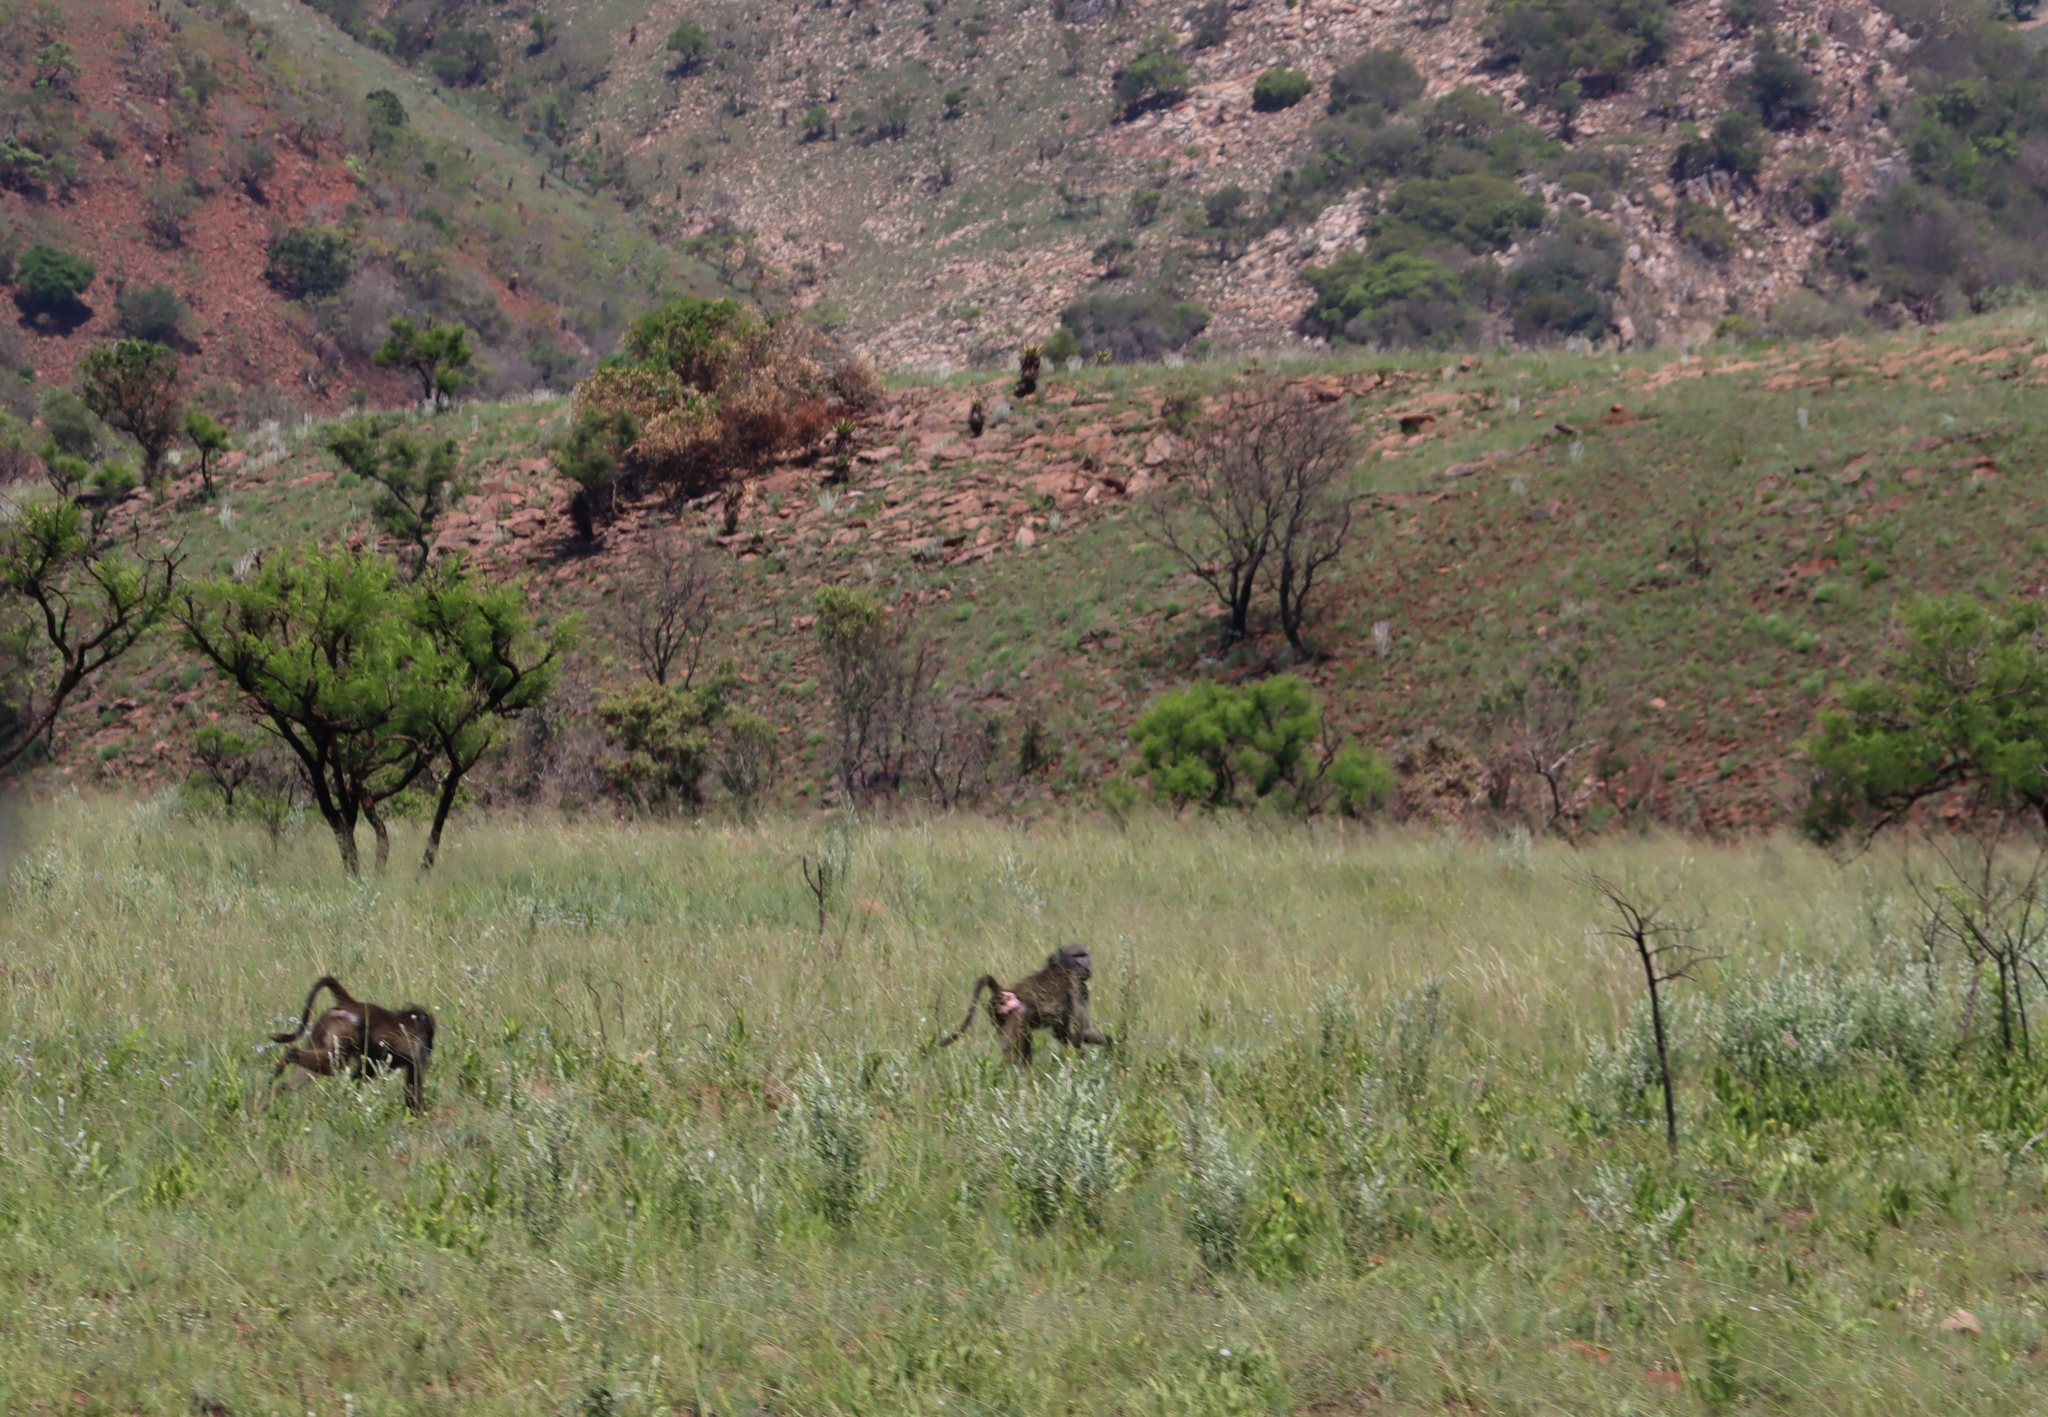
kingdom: Animalia
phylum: Chordata
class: Mammalia
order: Primates
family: Cercopithecidae
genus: Papio
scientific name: Papio ursinus
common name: Chacma baboon
